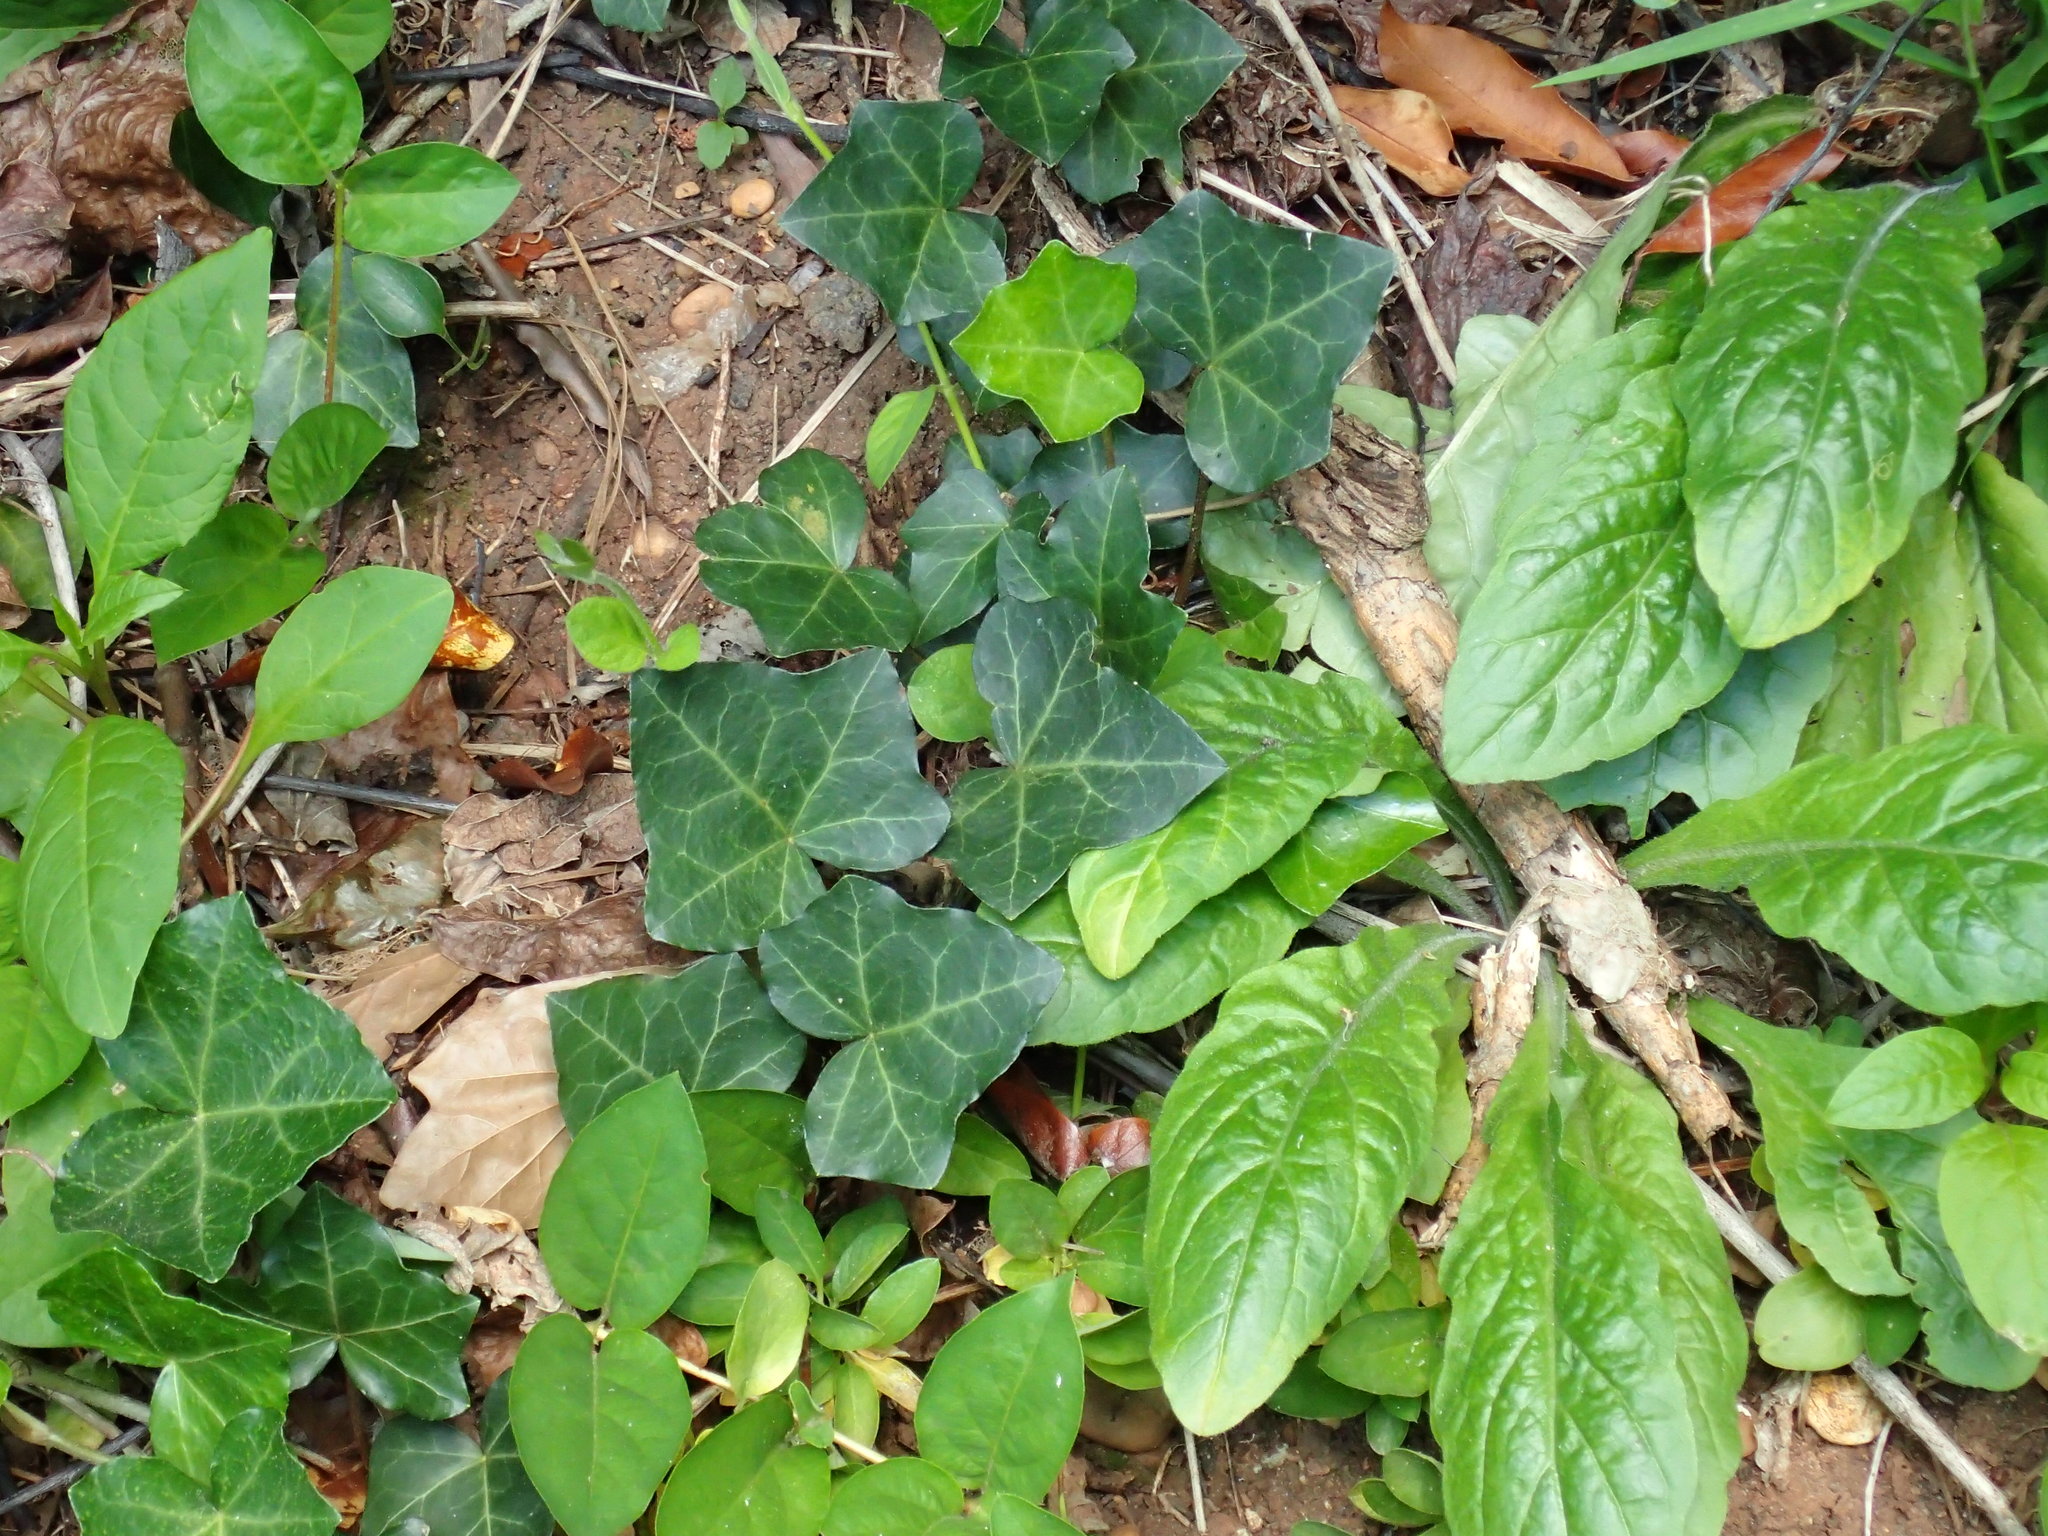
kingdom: Plantae
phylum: Tracheophyta
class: Magnoliopsida
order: Apiales
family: Araliaceae
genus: Hedera
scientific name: Hedera helix
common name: Ivy
